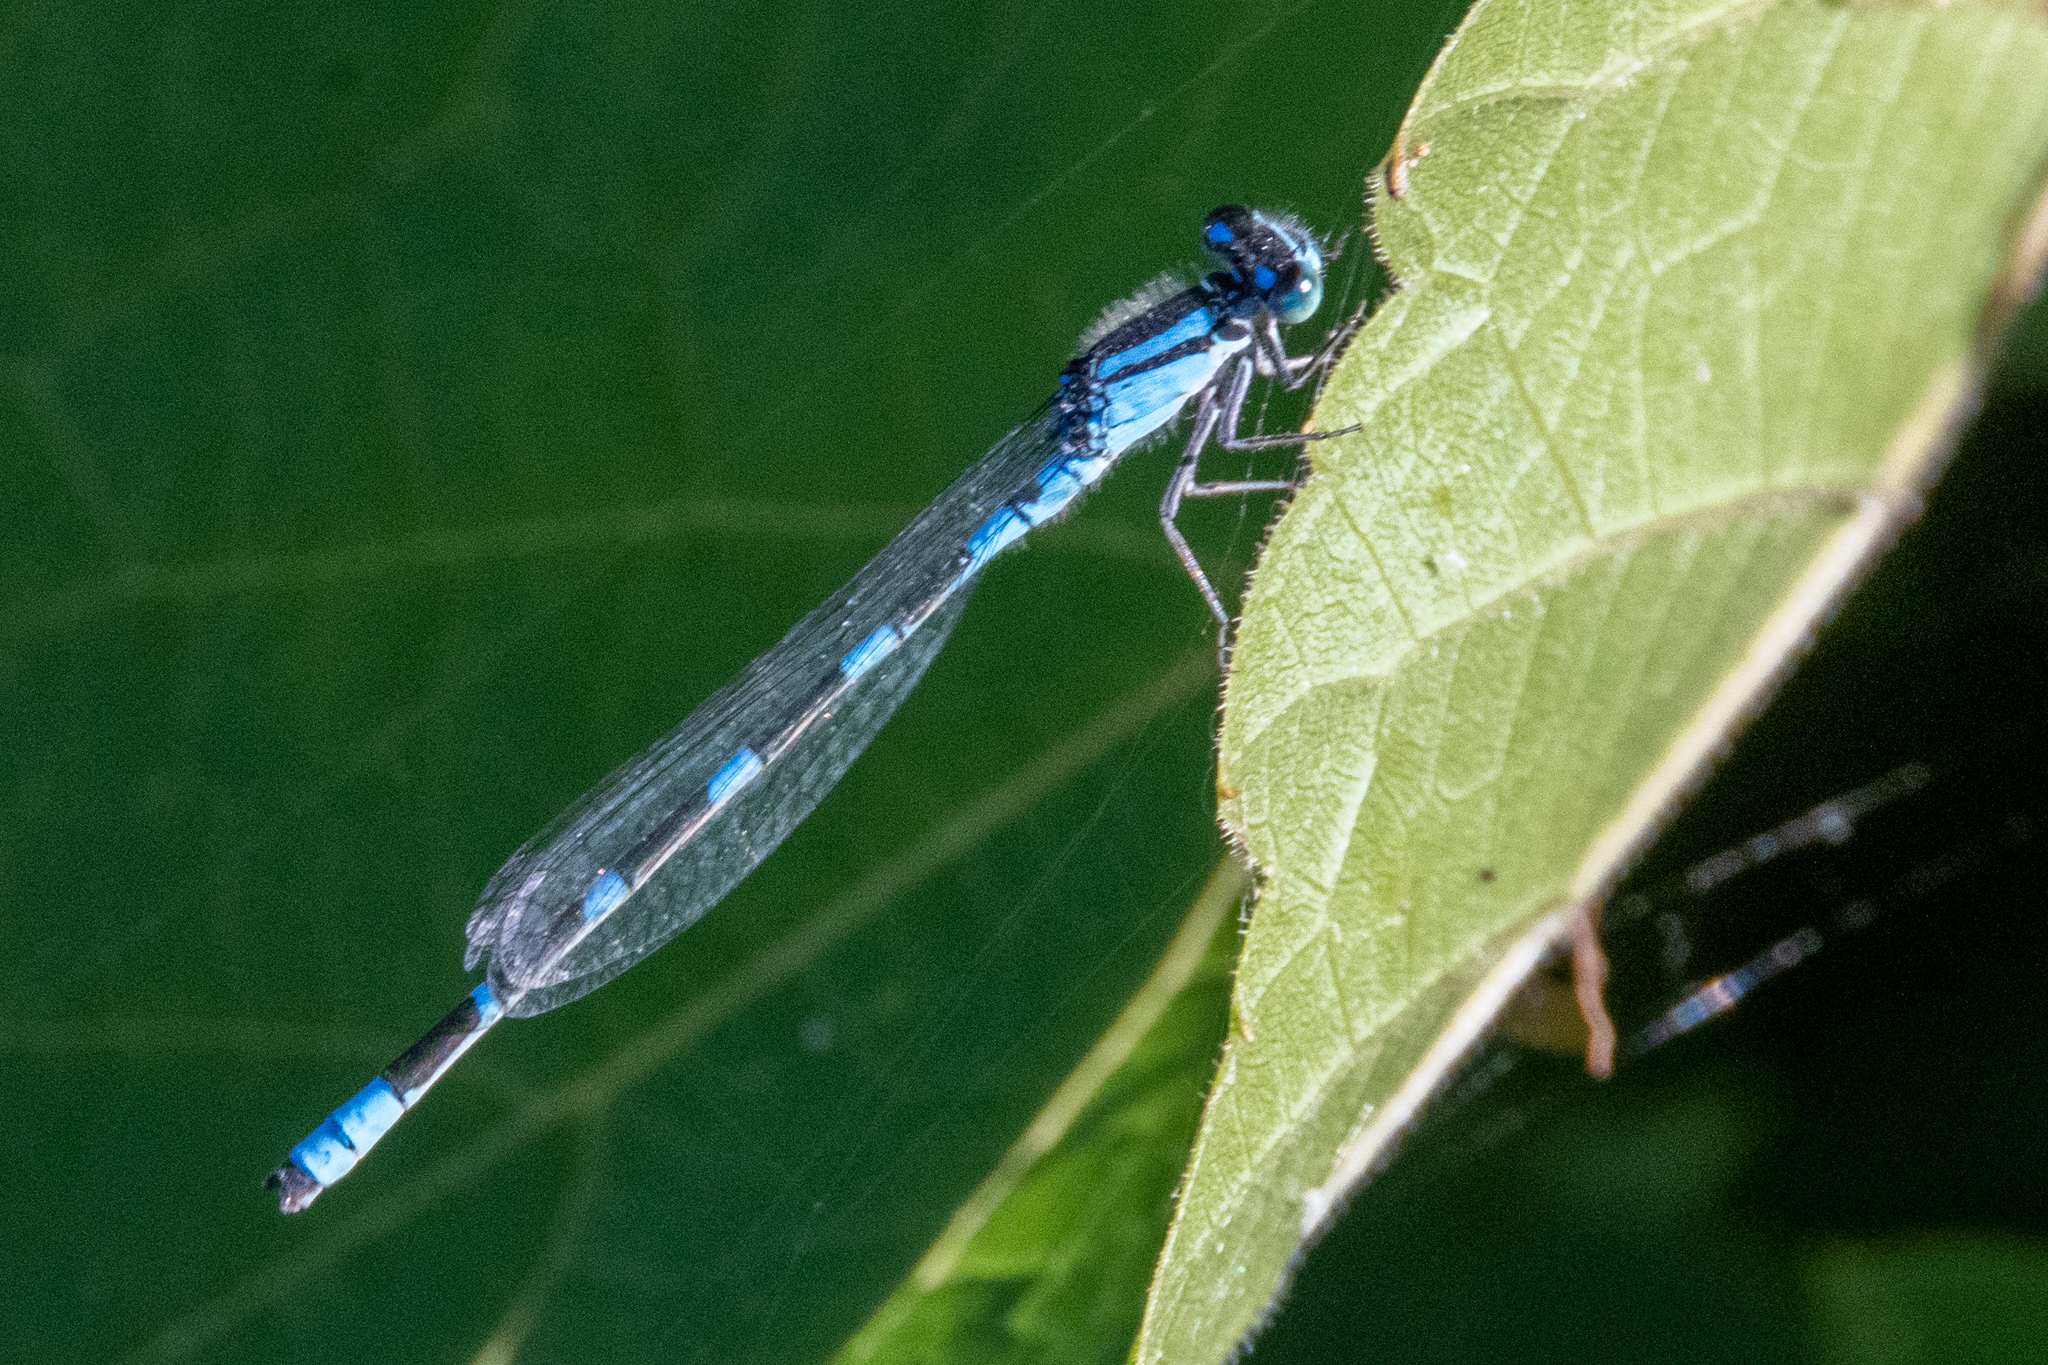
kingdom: Animalia
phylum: Arthropoda
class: Insecta
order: Odonata
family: Coenagrionidae
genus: Enallagma
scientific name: Enallagma carunculatum
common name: Tule bluet
